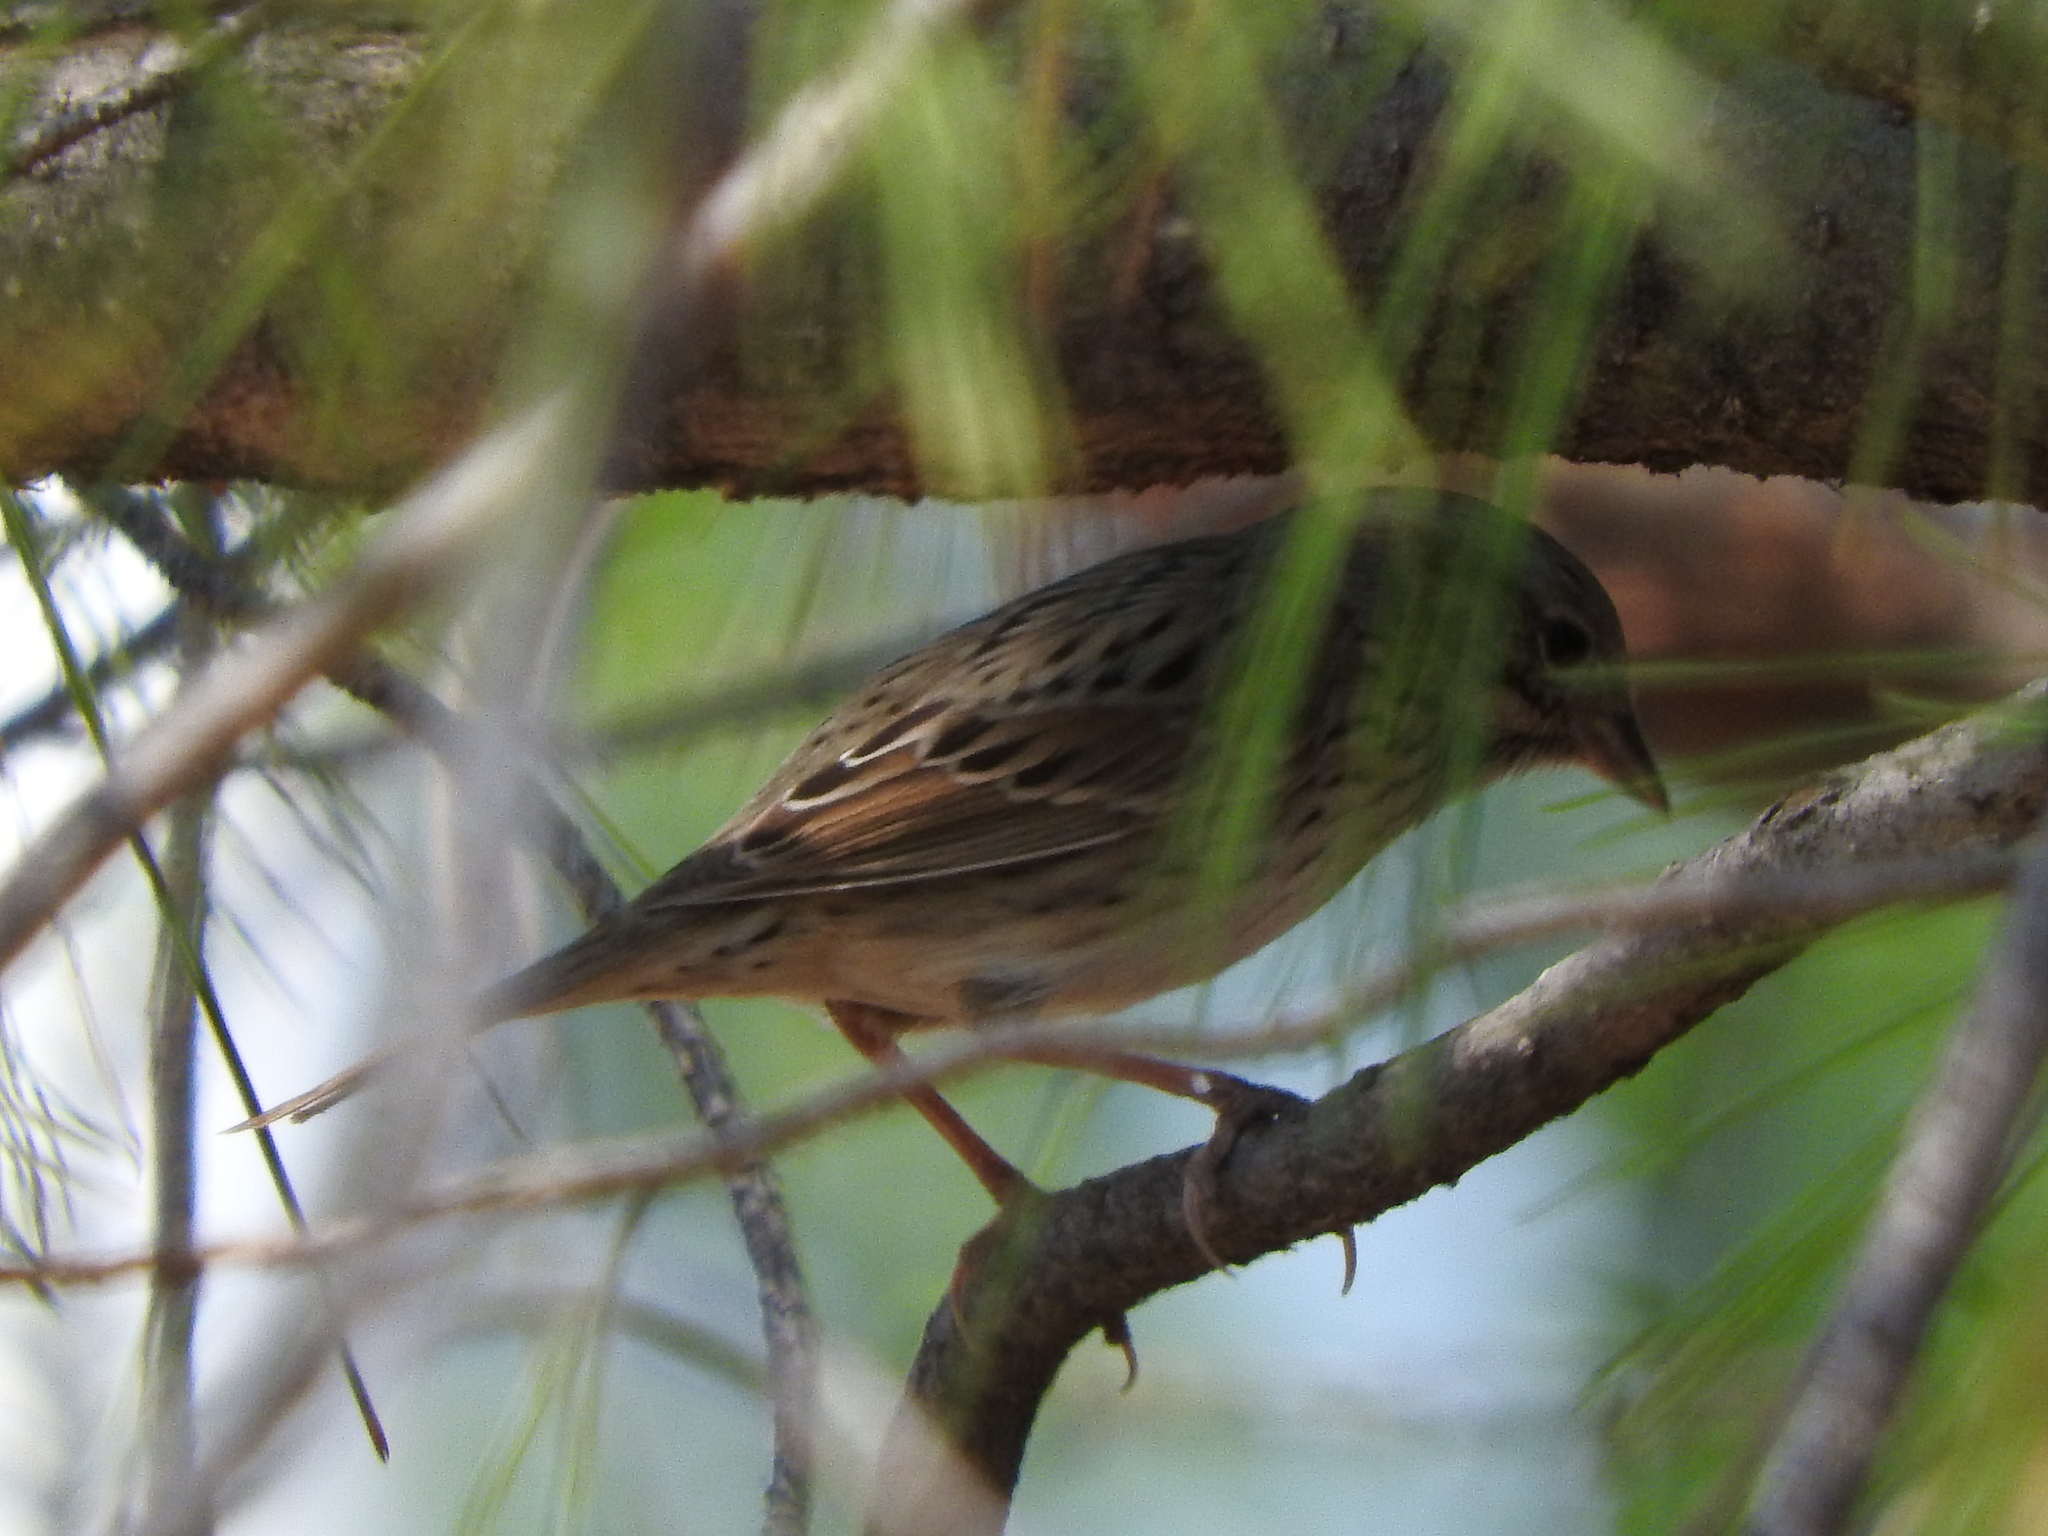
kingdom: Animalia
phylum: Chordata
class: Aves
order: Passeriformes
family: Passerellidae
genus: Melospiza
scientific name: Melospiza lincolnii
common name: Lincoln's sparrow
